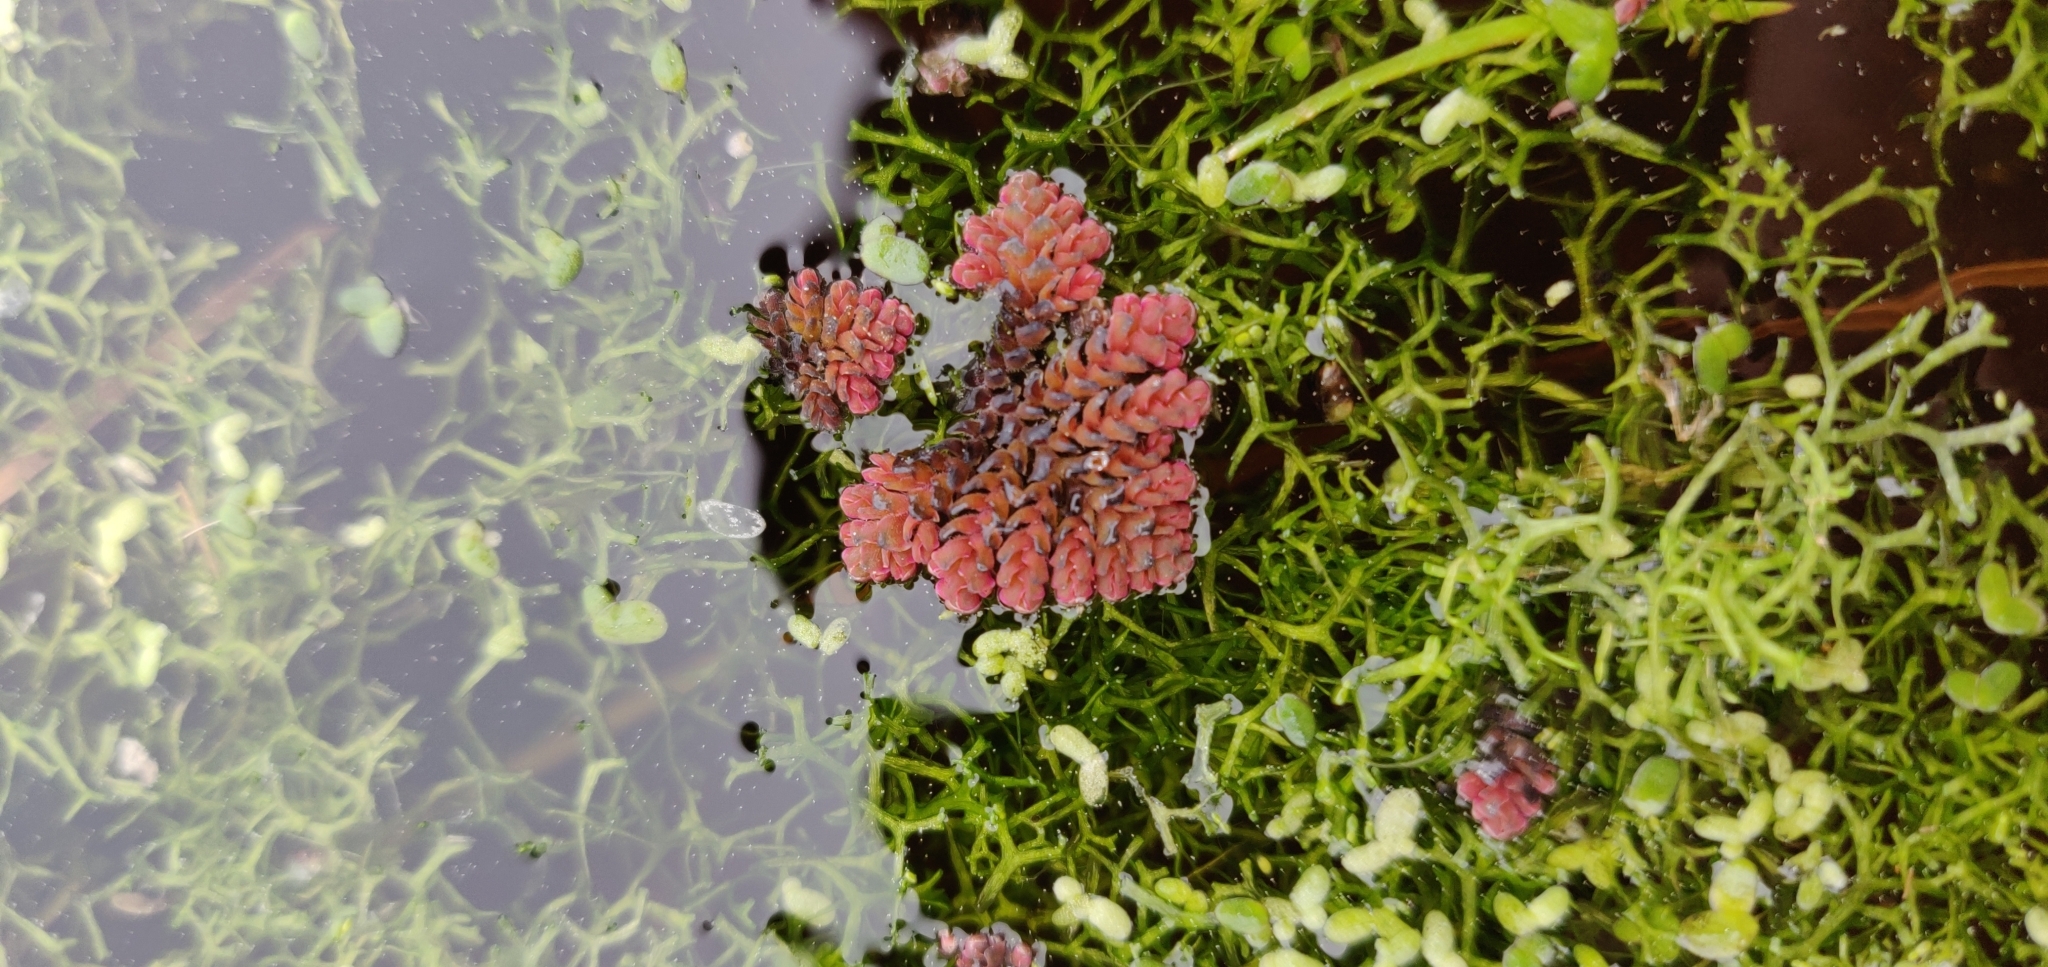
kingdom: Plantae
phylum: Tracheophyta
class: Polypodiopsida
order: Salviniales
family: Salviniaceae
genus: Azolla
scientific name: Azolla pinnata
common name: Ferny azolla
